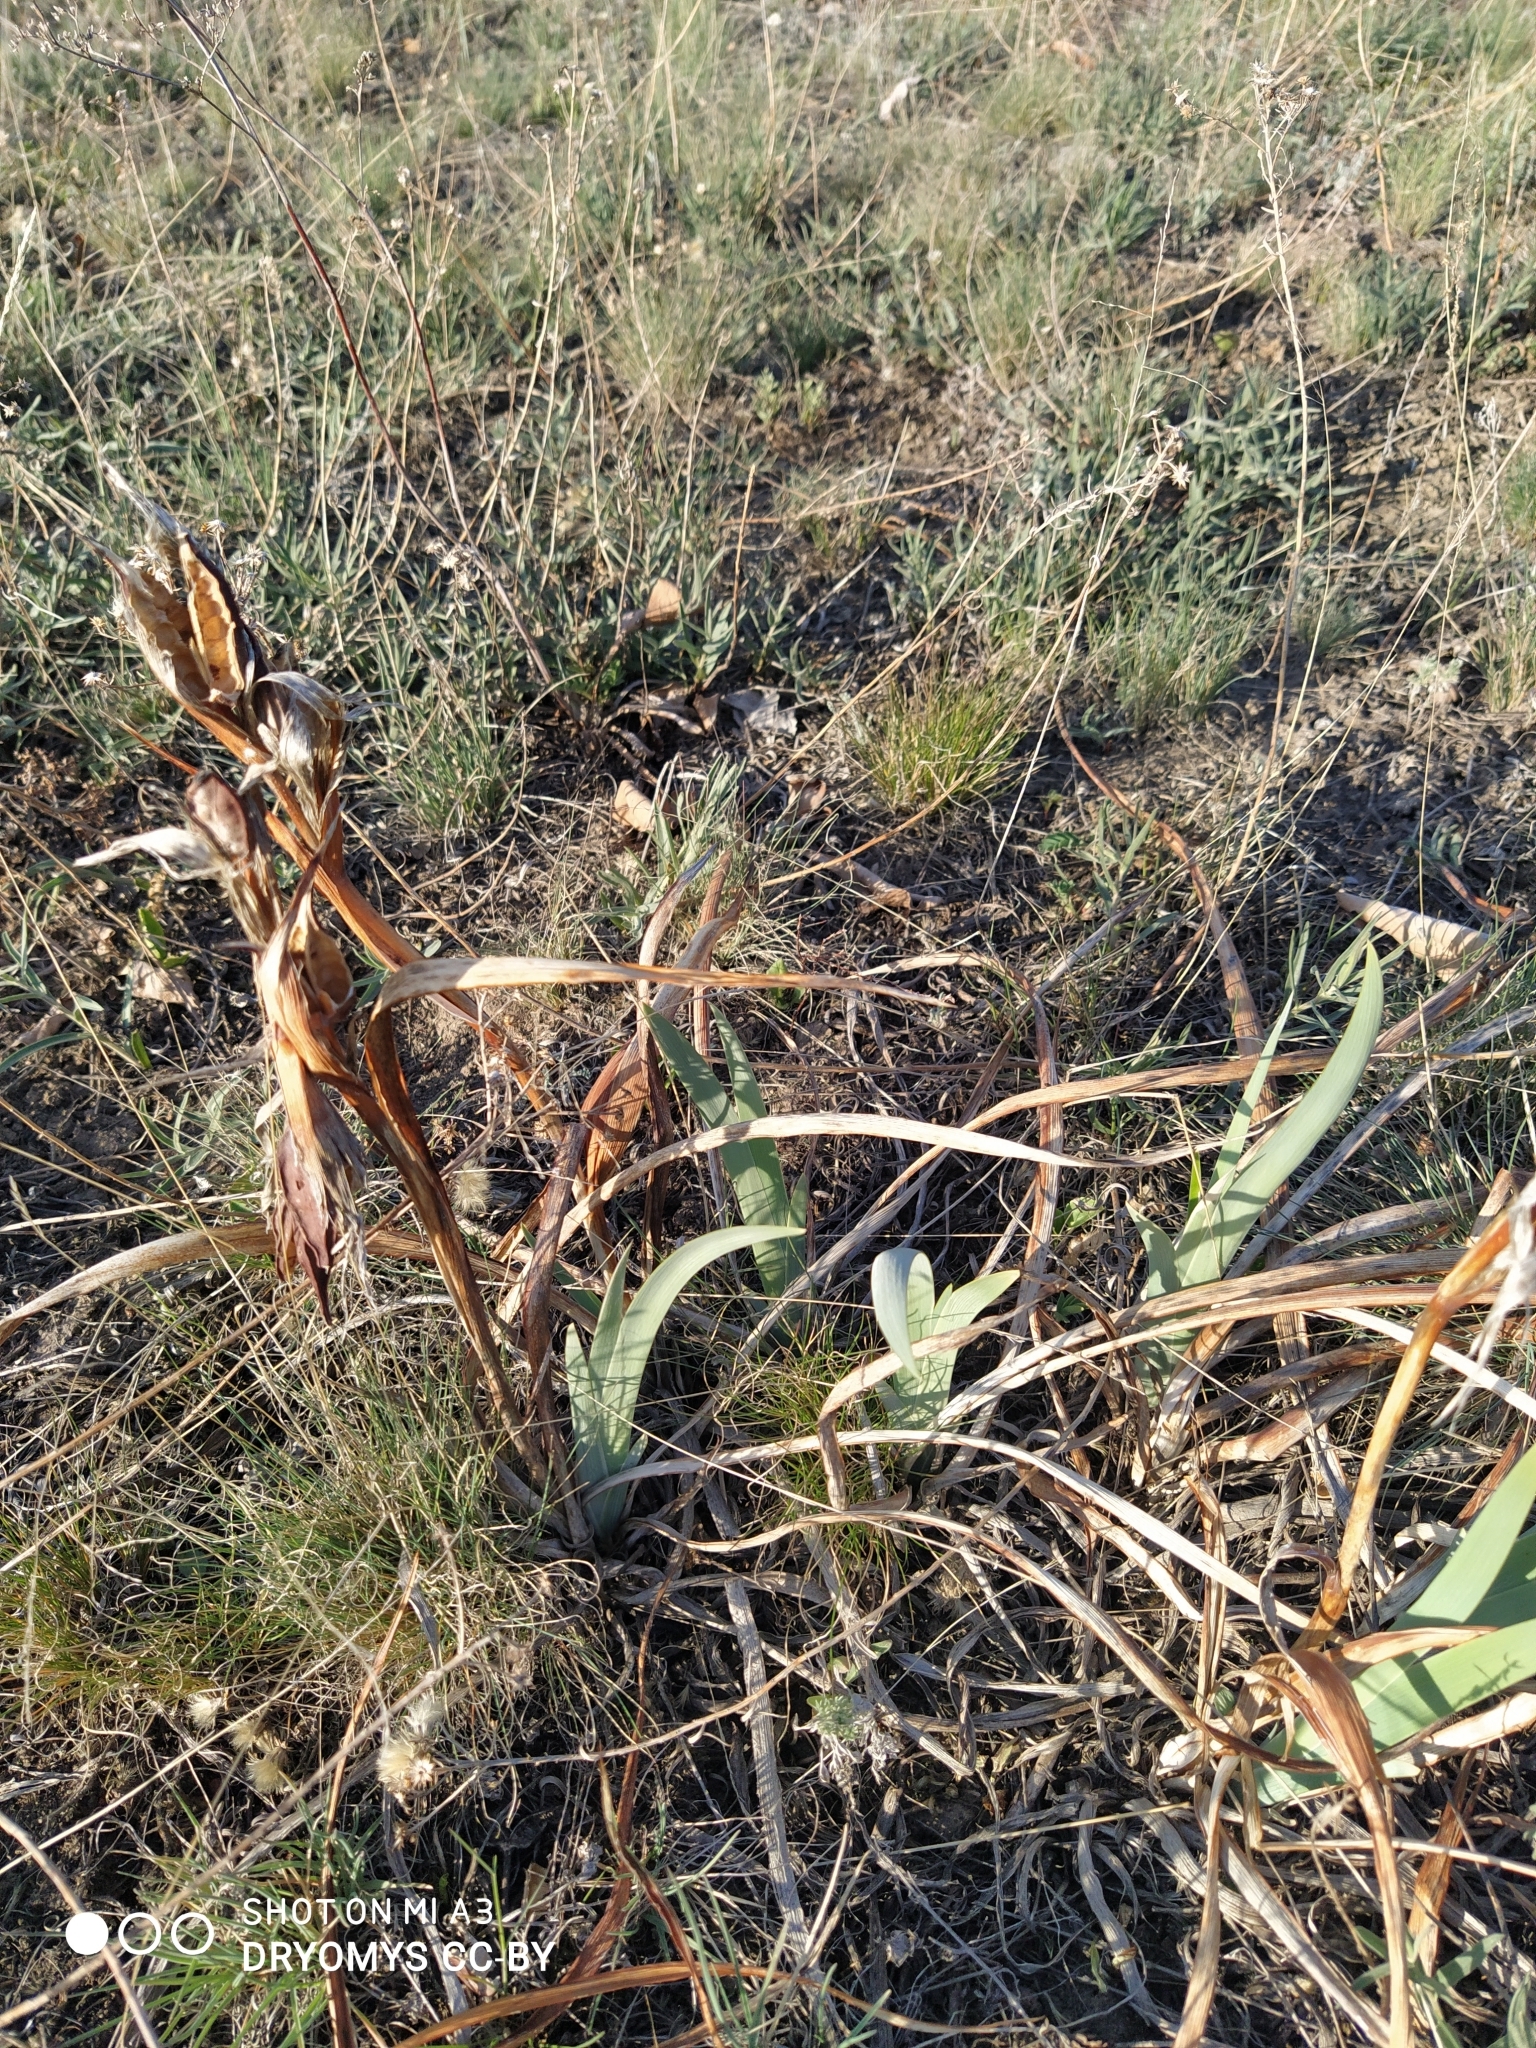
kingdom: Plantae
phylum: Tracheophyta
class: Liliopsida
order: Asparagales
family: Iridaceae
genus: Iris
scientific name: Iris halophila
